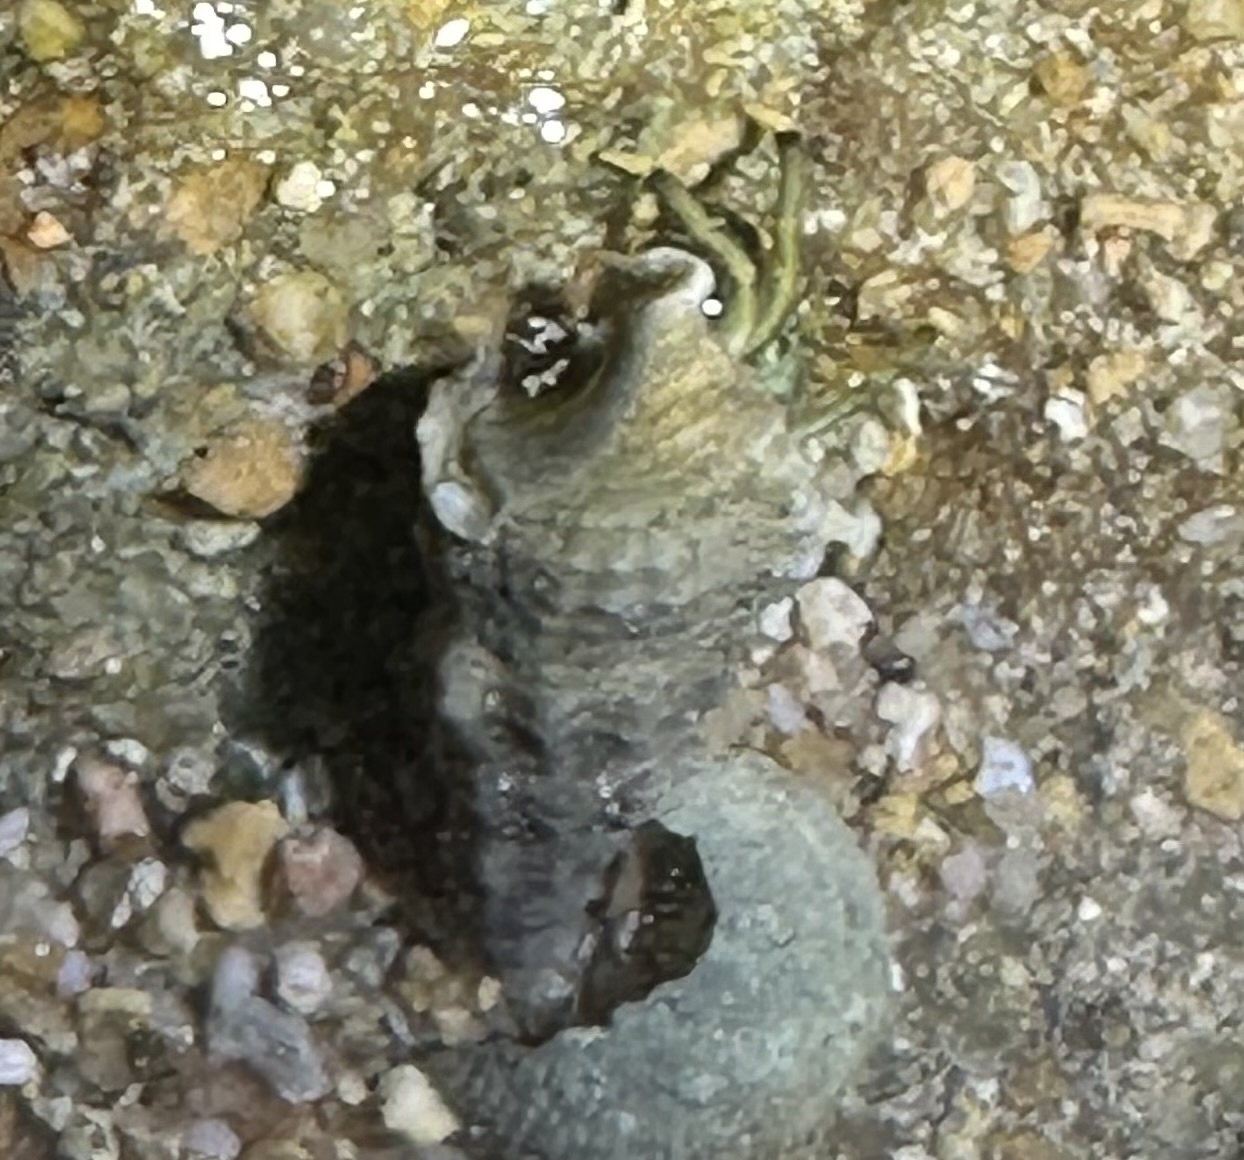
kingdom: Animalia
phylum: Arthropoda
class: Malacostraca
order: Decapoda
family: Diogenidae
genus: Clibanarius
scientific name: Clibanarius virescens
